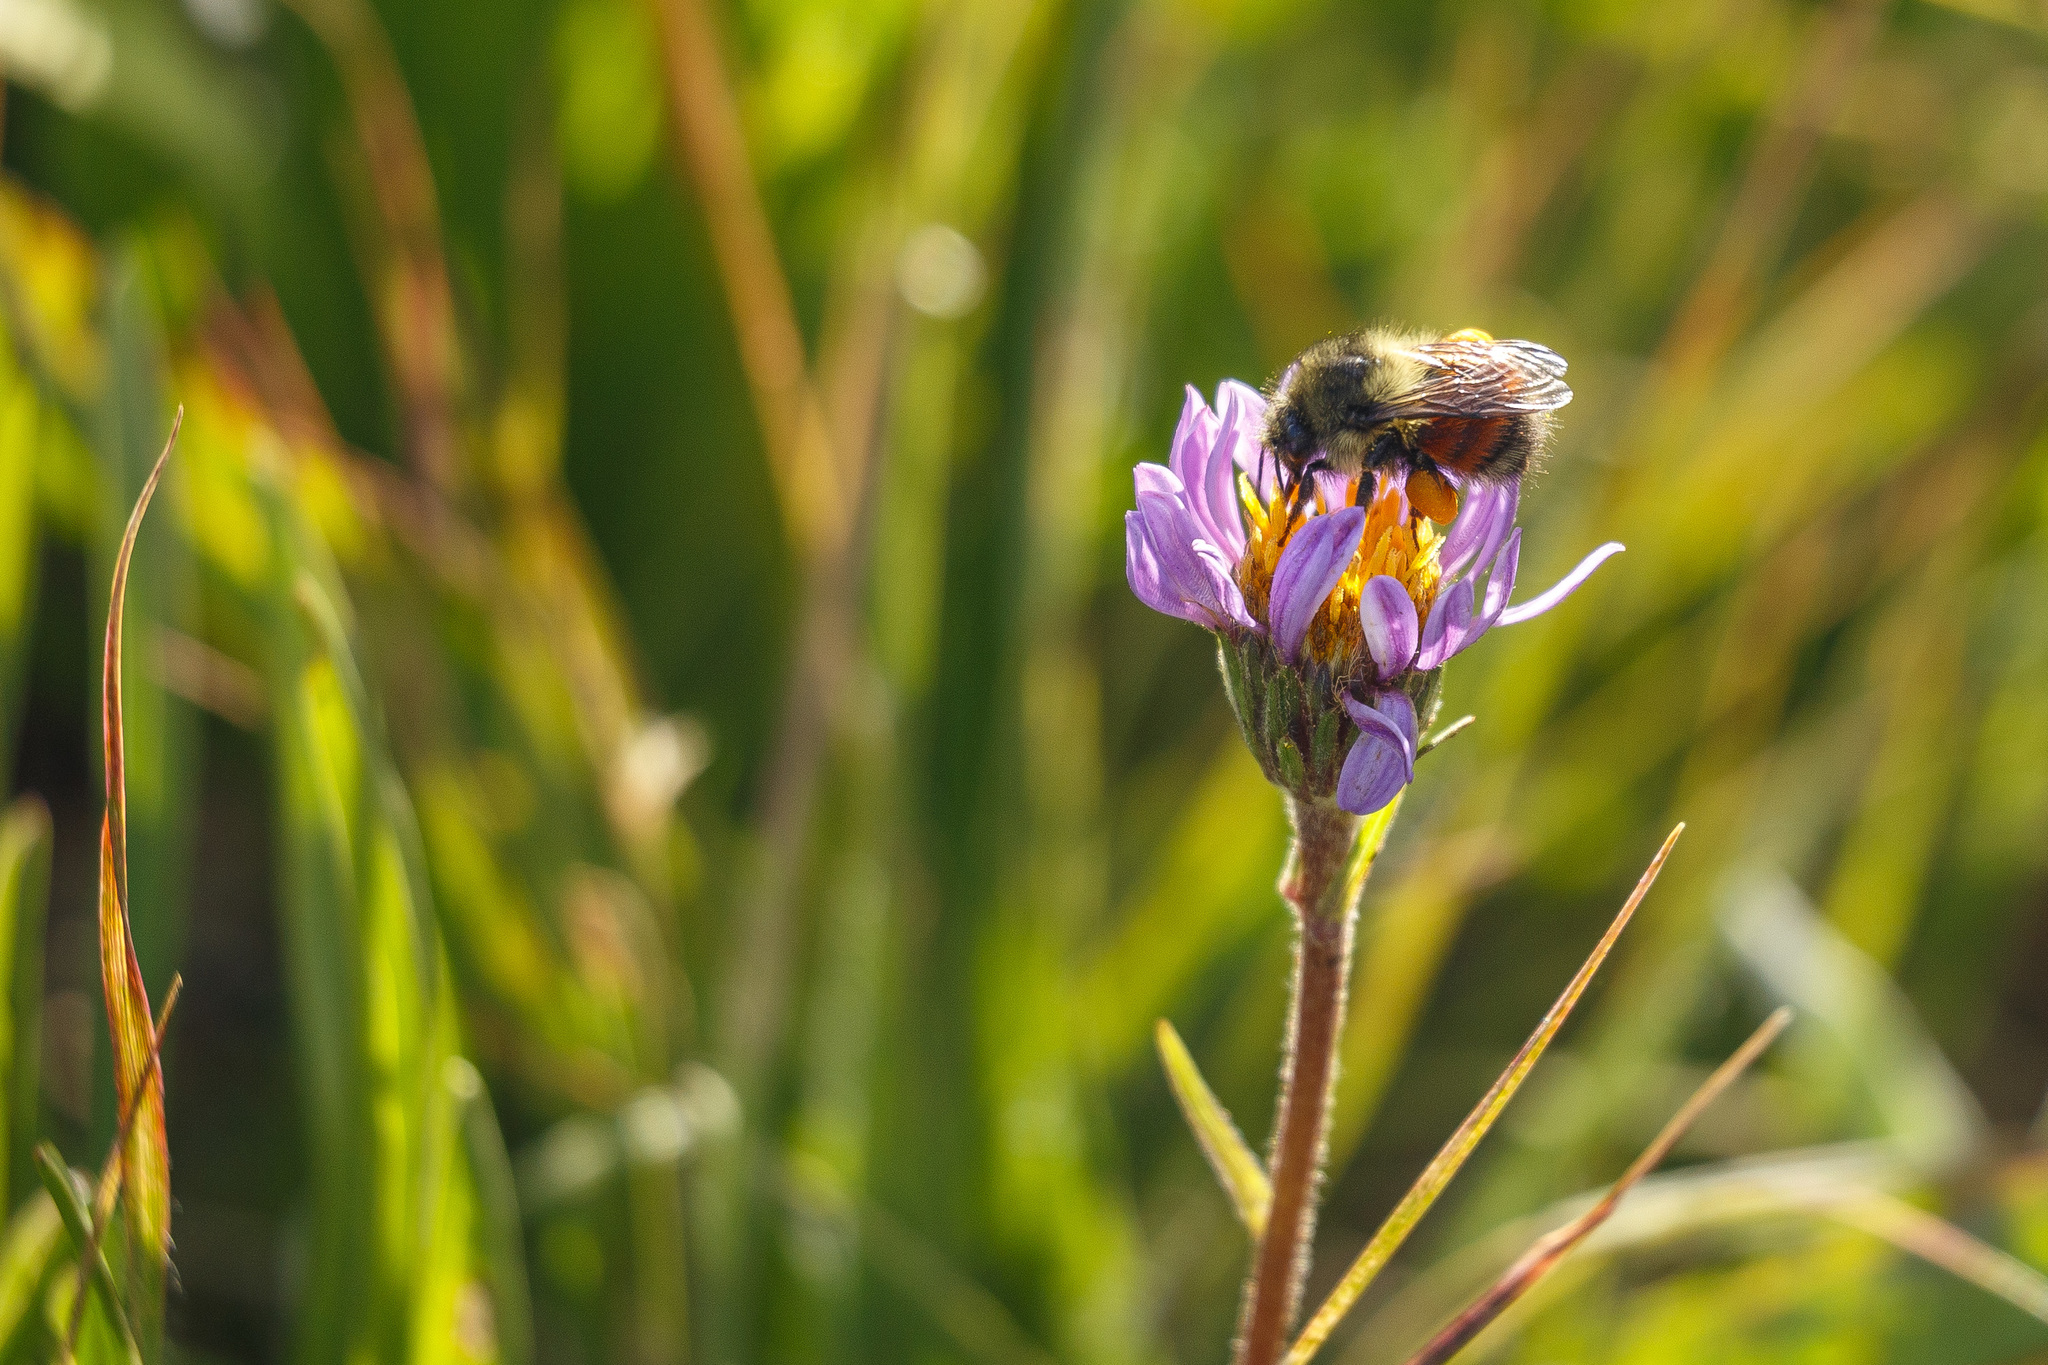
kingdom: Animalia
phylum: Arthropoda
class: Insecta
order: Hymenoptera
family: Apidae
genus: Bombus
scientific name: Bombus melanopygus
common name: Black tail bumble bee
